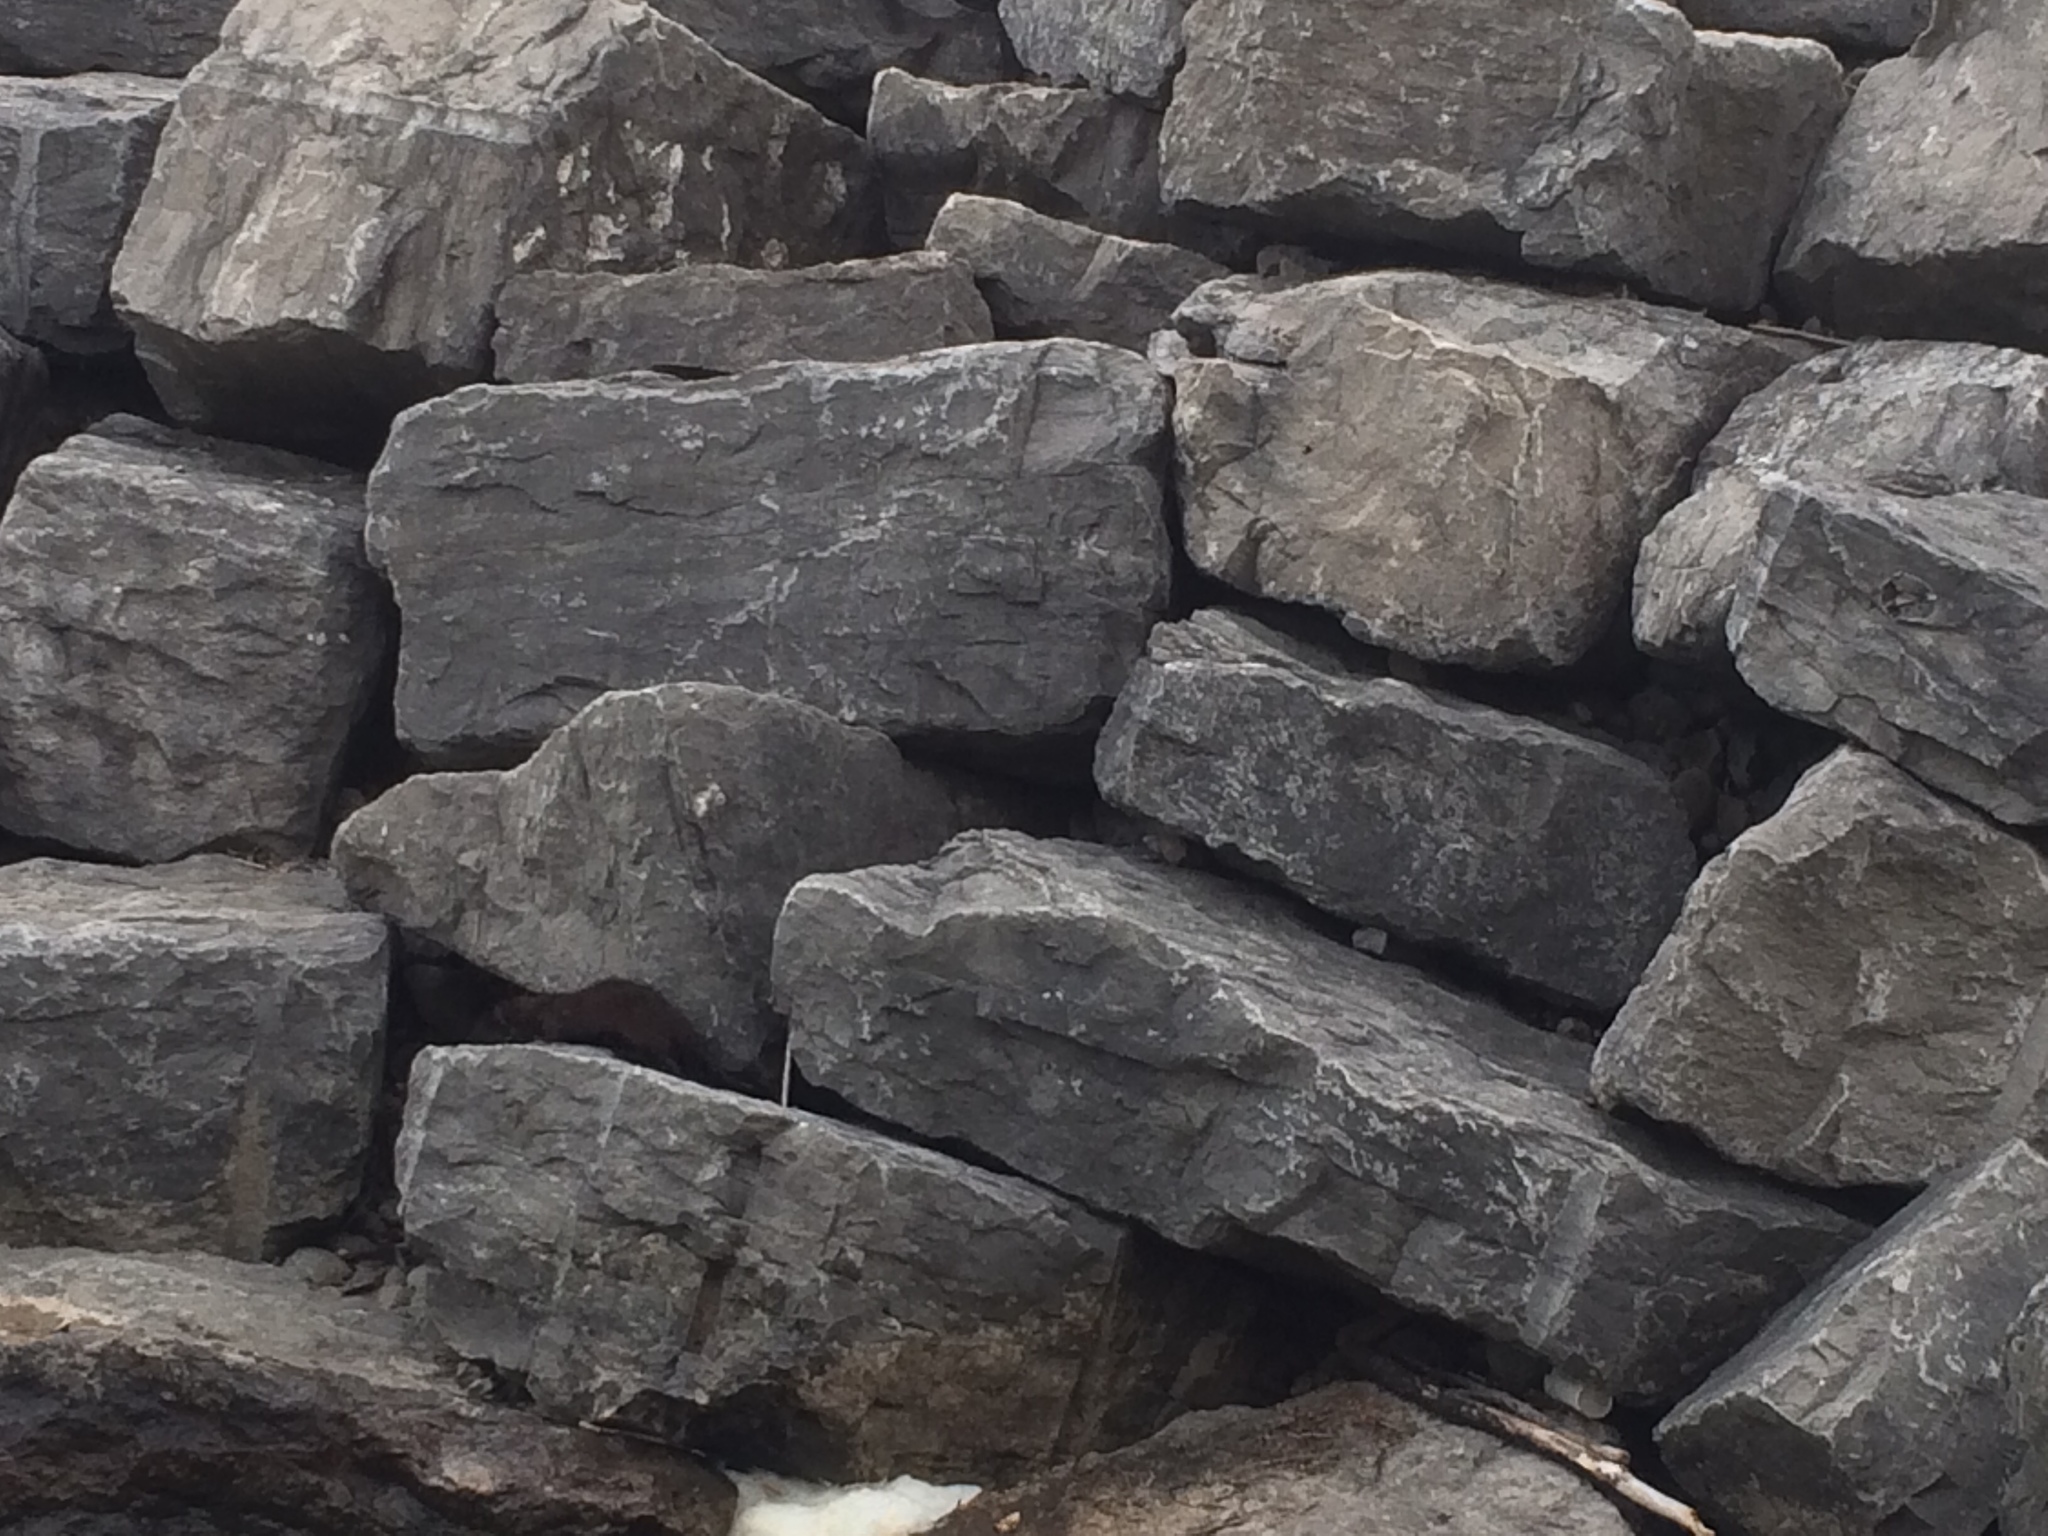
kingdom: Animalia
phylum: Chordata
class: Mammalia
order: Carnivora
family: Mustelidae
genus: Mustela
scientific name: Mustela
